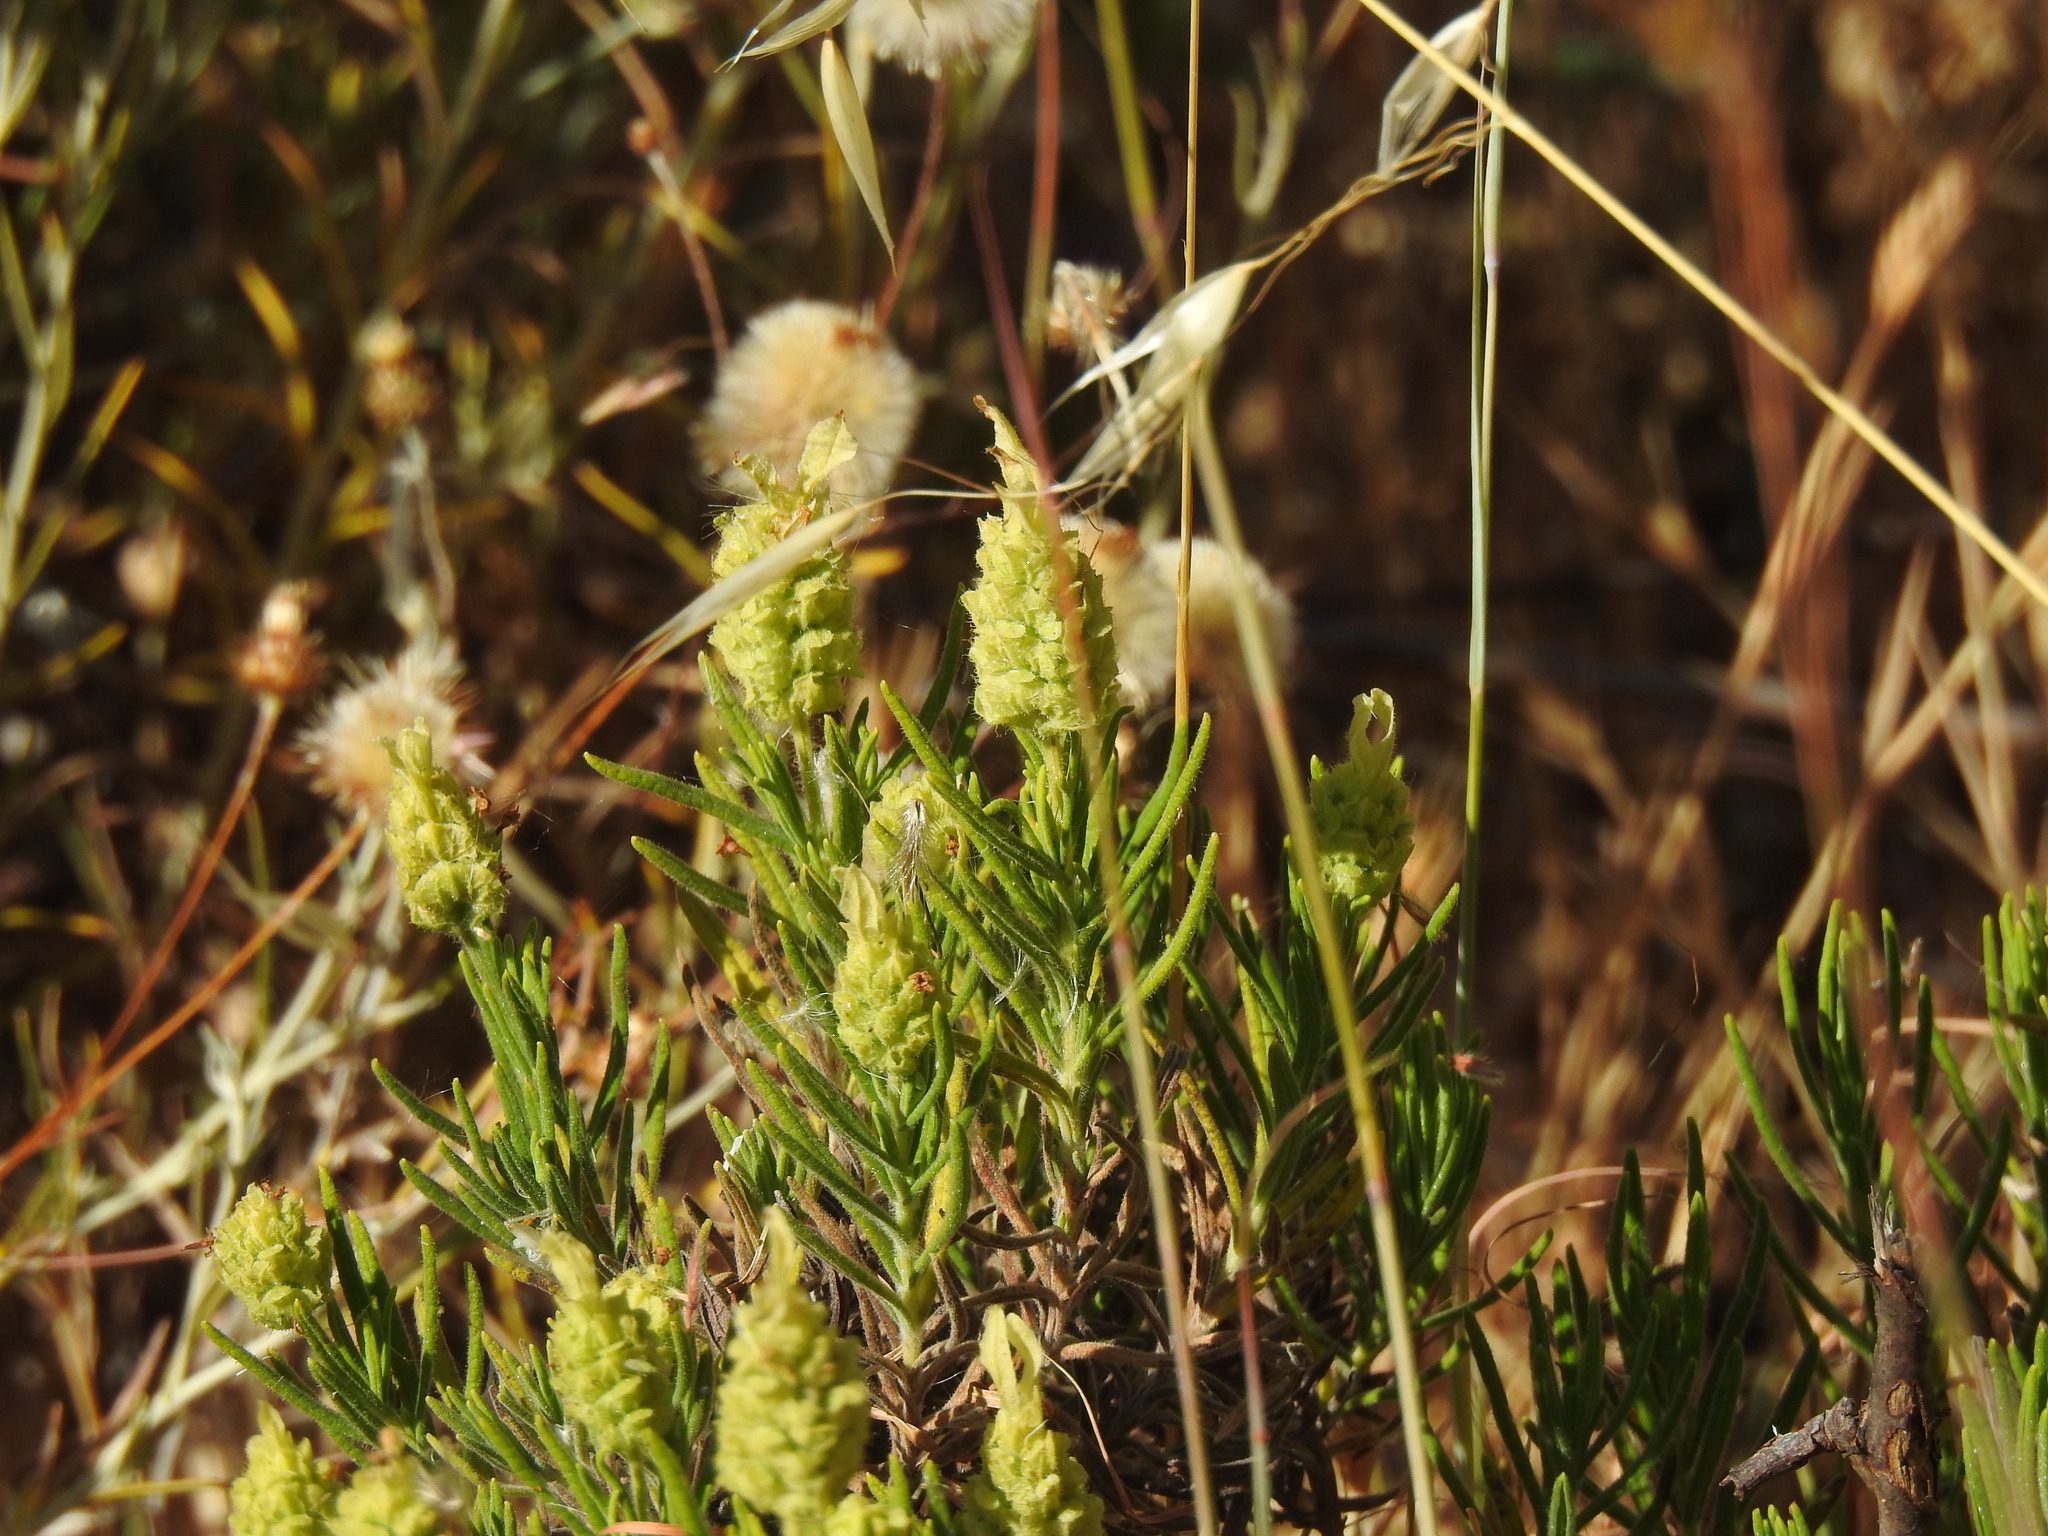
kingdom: Plantae
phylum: Tracheophyta
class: Magnoliopsida
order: Lamiales
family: Lamiaceae
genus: Lavandula
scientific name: Lavandula viridis
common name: Green spanish lavender
